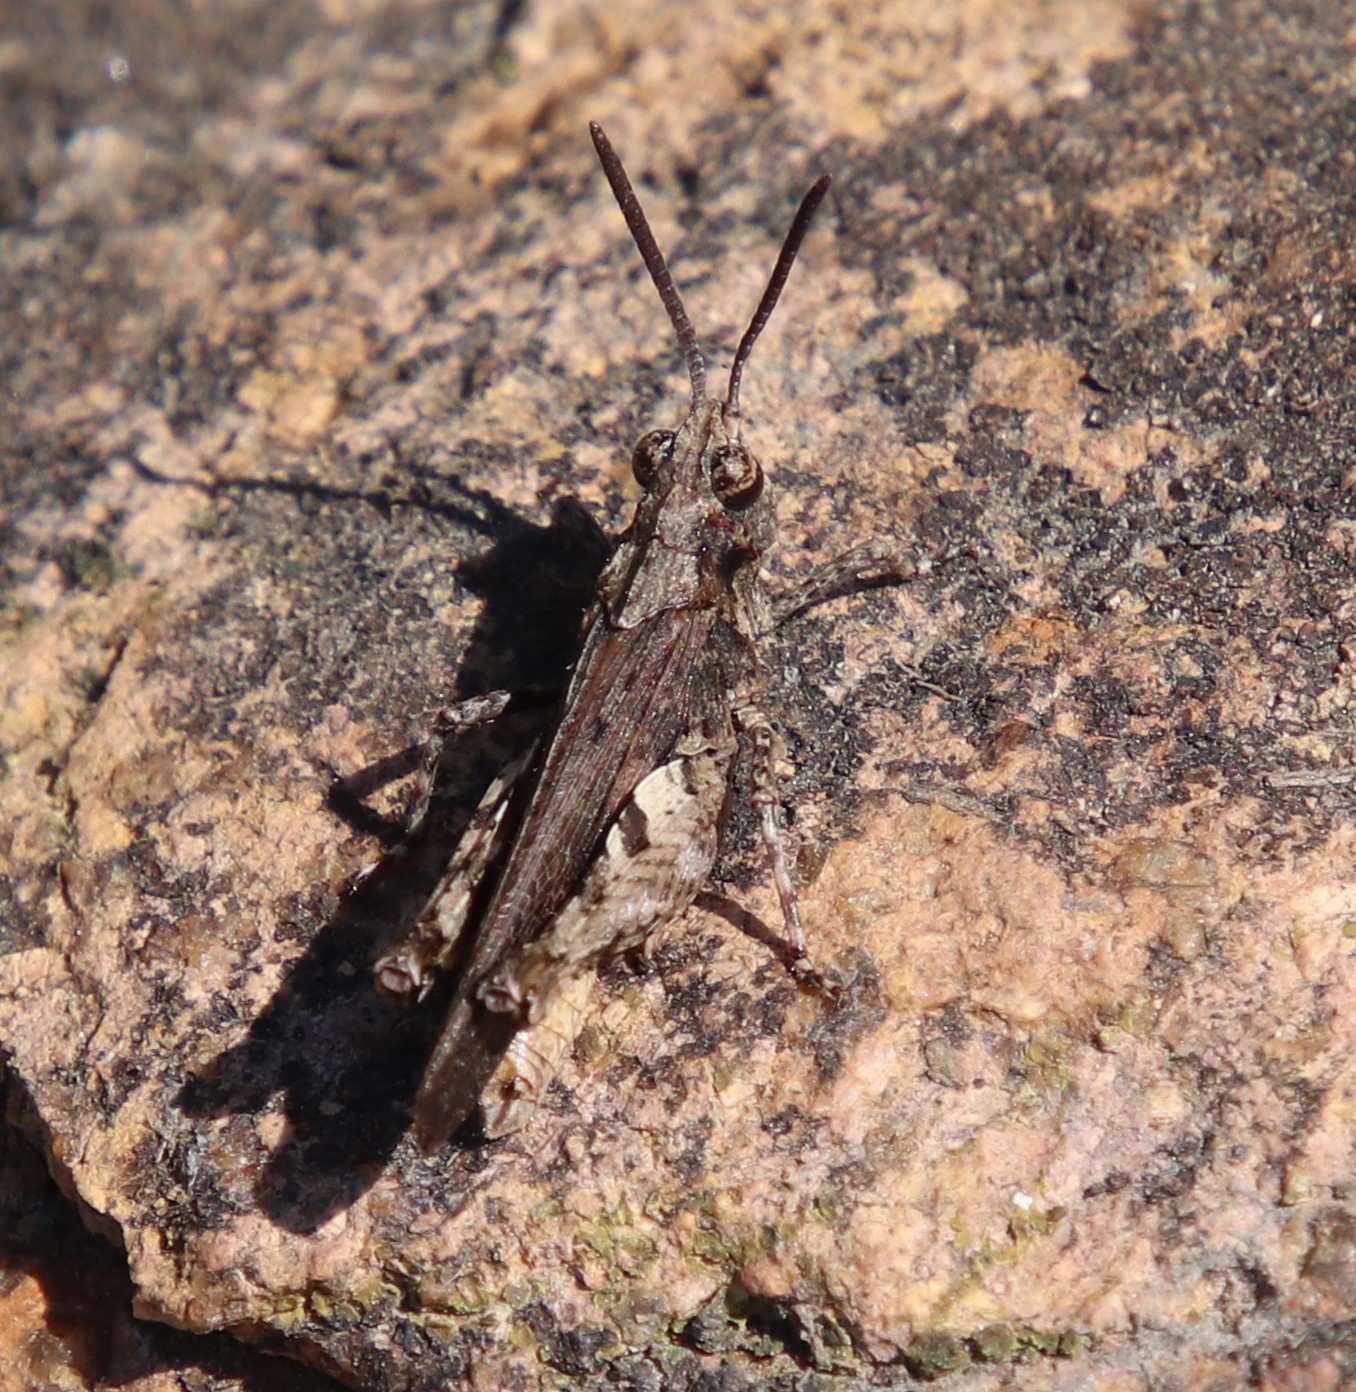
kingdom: Animalia
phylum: Arthropoda
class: Insecta
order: Orthoptera
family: Acrididae
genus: Chimarocephala
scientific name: Chimarocephala pacifica
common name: Painted meadow grasshopper
